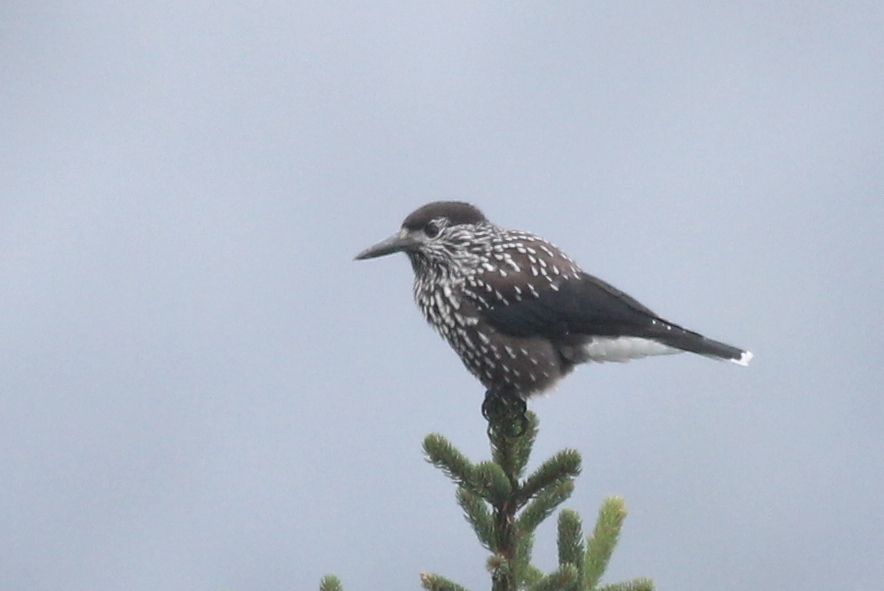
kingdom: Animalia
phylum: Chordata
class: Aves
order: Passeriformes
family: Corvidae
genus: Nucifraga
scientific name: Nucifraga caryocatactes
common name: Spotted nutcracker
